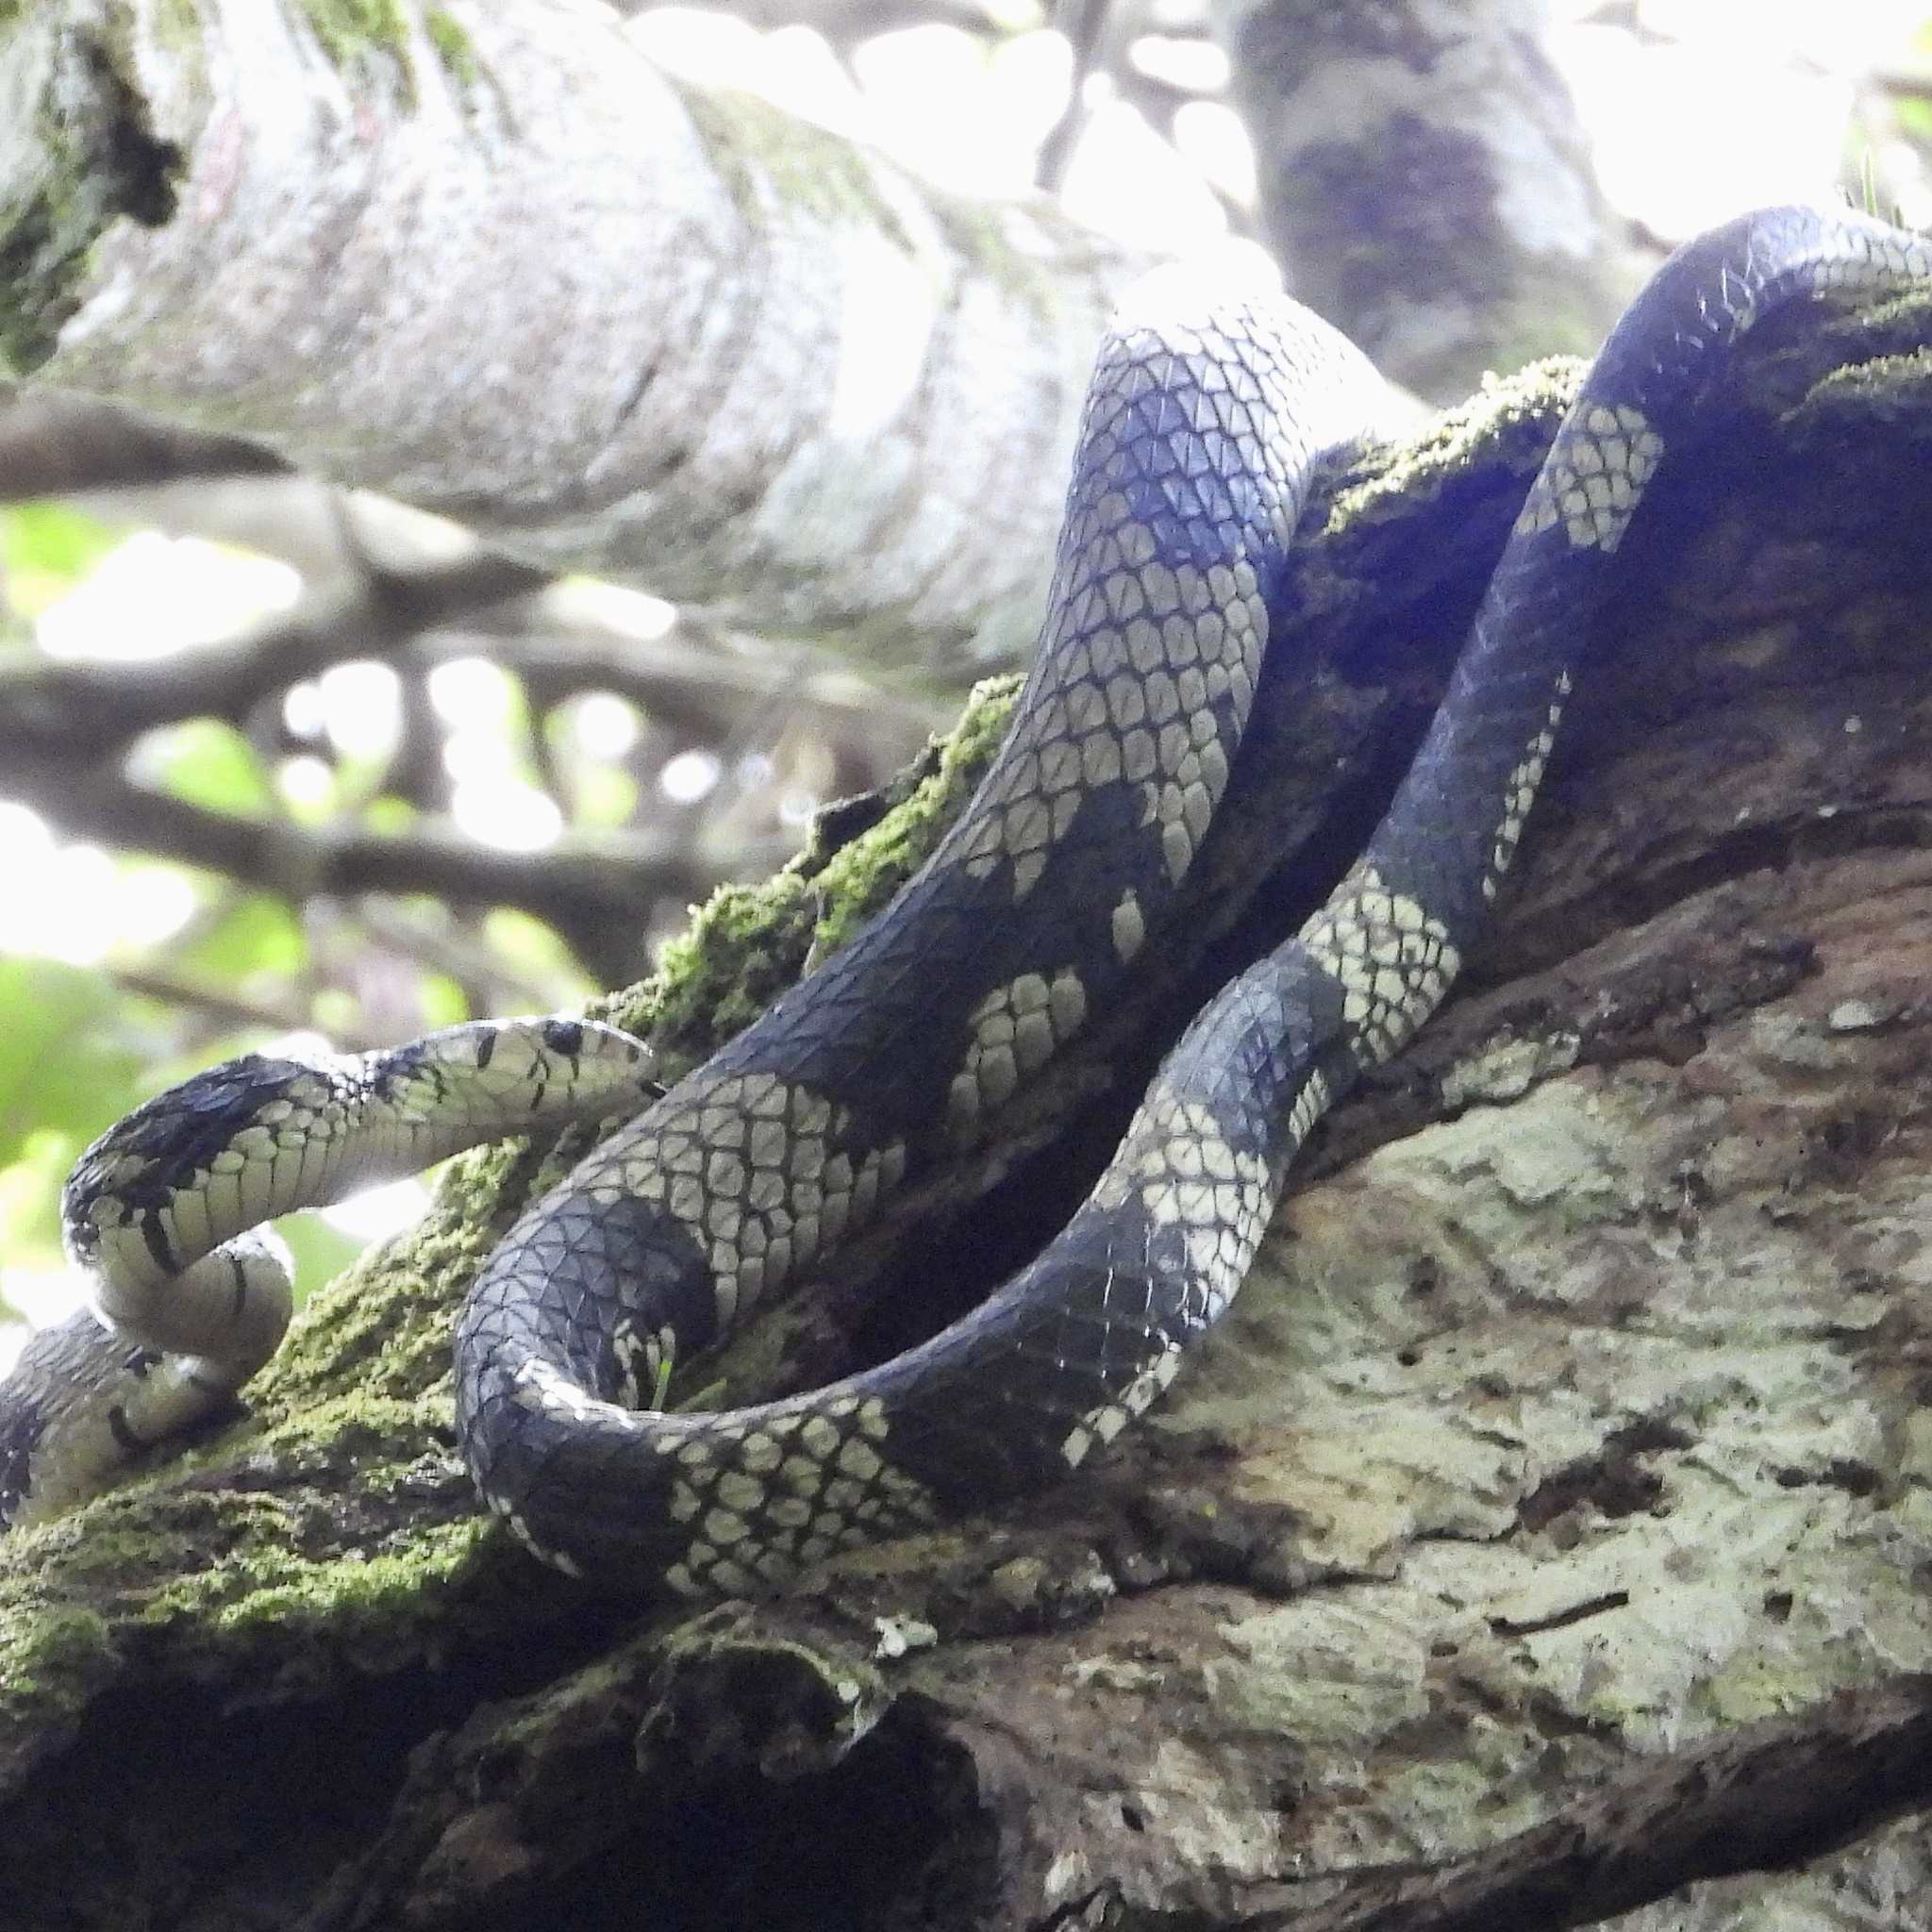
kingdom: Animalia
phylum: Chordata
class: Squamata
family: Colubridae
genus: Spilotes
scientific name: Spilotes pullatus
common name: Chicken snake
